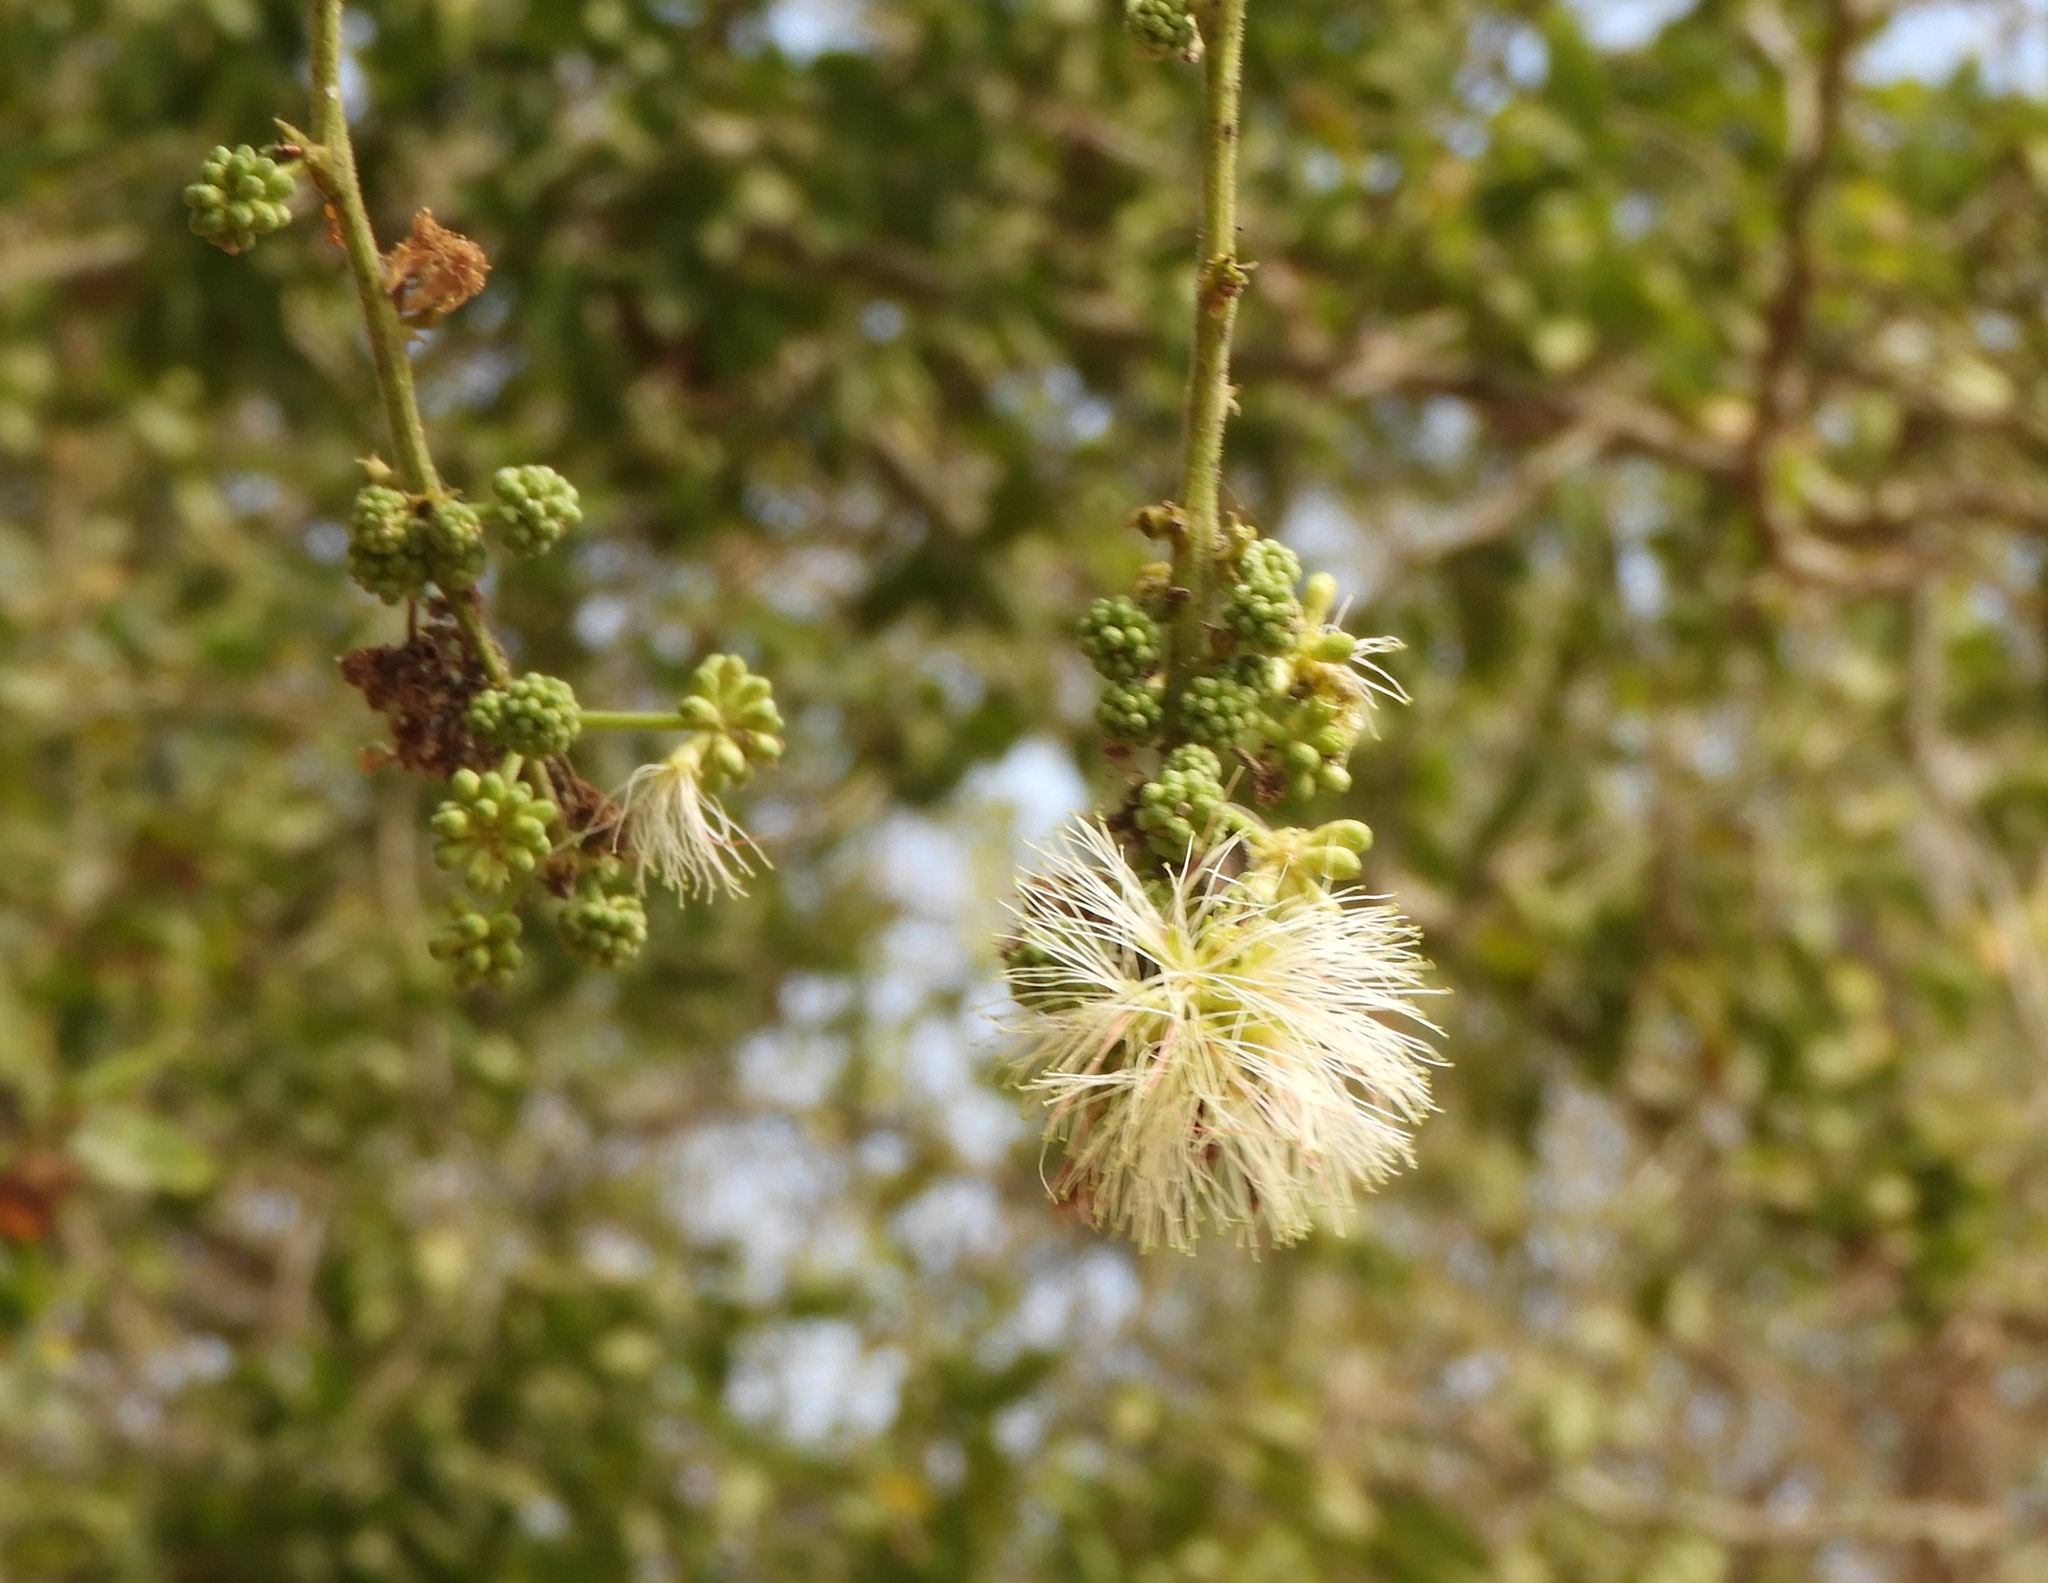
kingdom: Plantae
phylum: Tracheophyta
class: Magnoliopsida
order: Fabales
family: Fabaceae
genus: Pithecellobium
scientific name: Pithecellobium dulce
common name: Monkeypod
